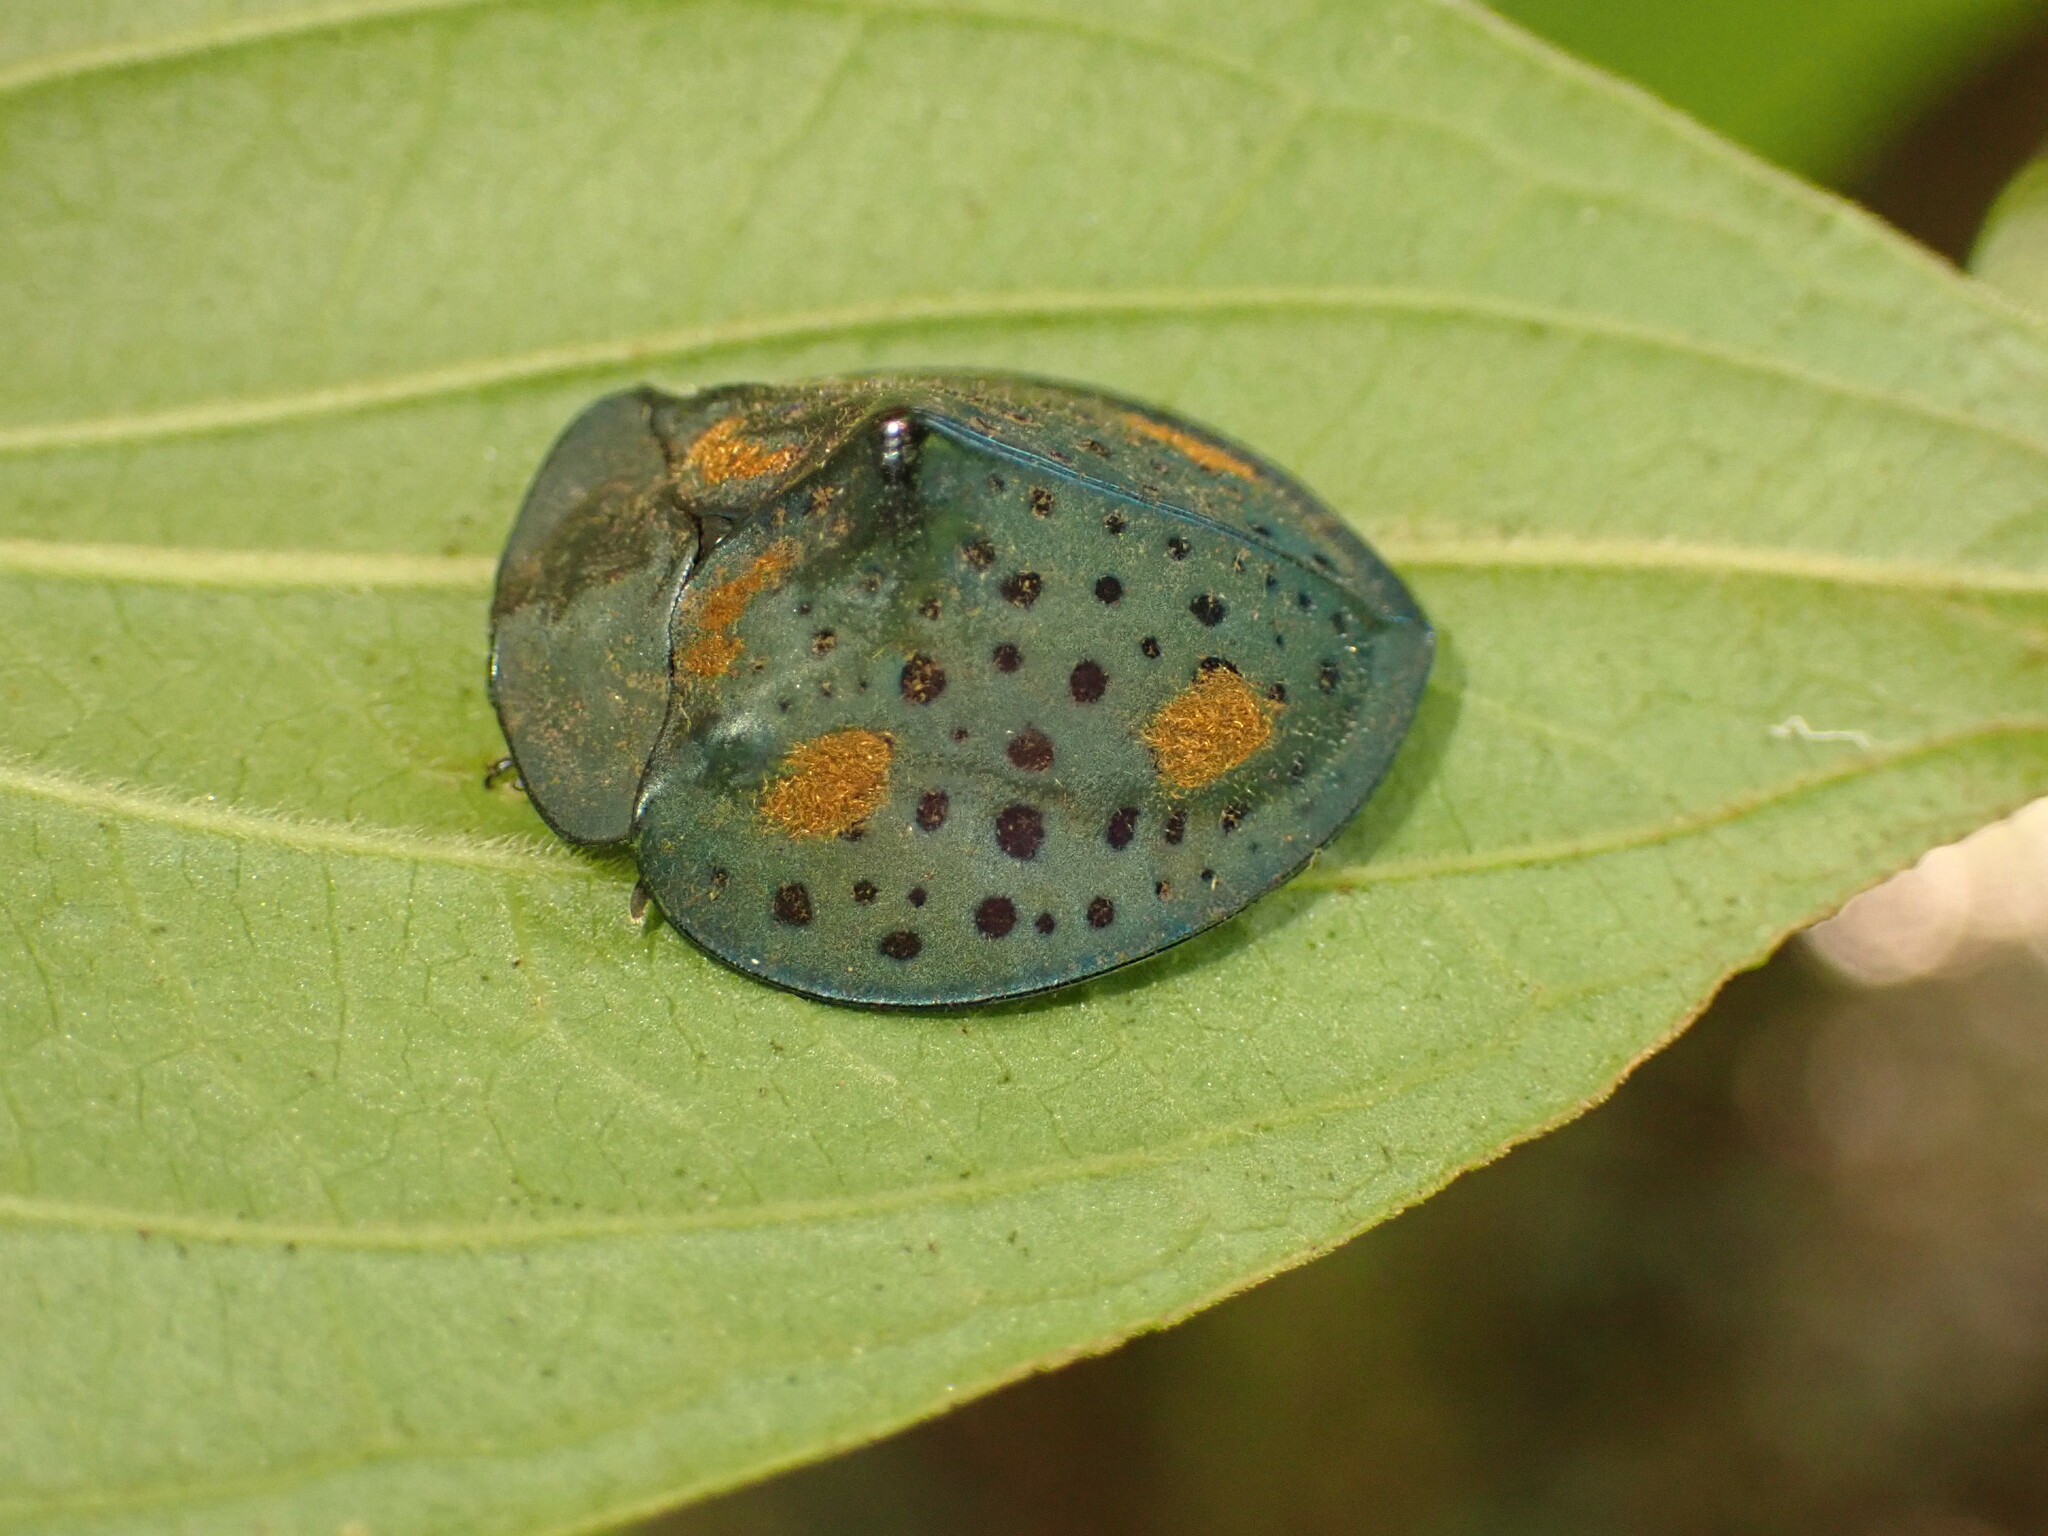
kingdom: Animalia
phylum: Arthropoda
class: Insecta
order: Coleoptera
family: Chrysomelidae
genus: Stolas
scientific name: Stolas conspersa
